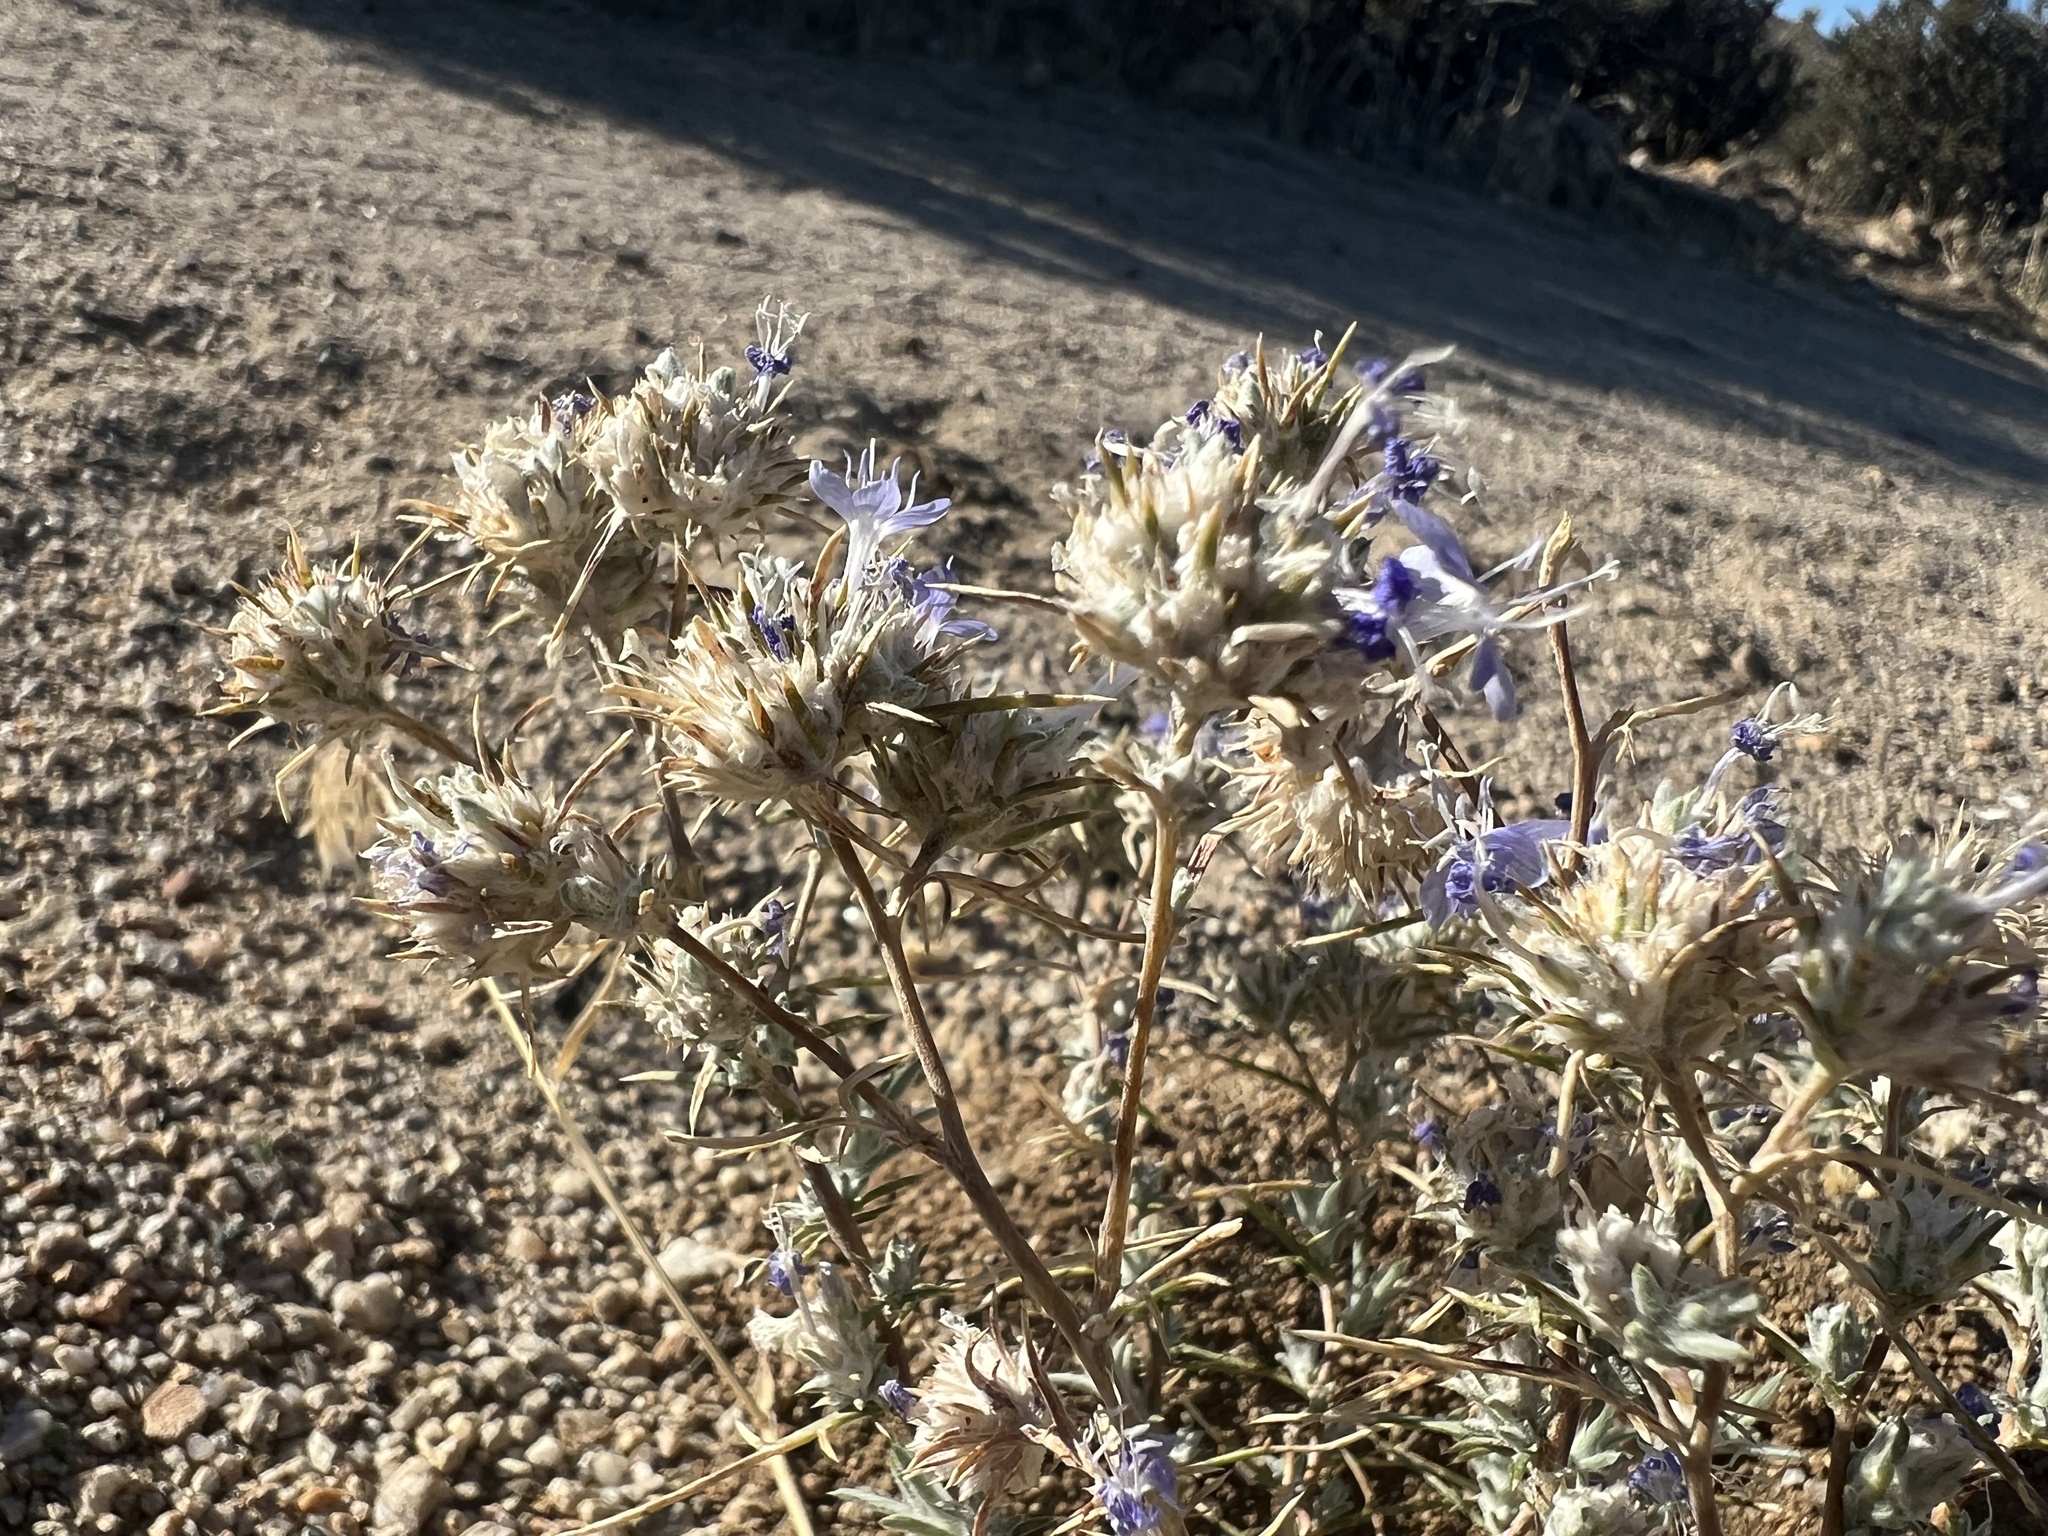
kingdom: Plantae
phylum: Tracheophyta
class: Magnoliopsida
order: Ericales
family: Polemoniaceae
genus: Eriastrum
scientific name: Eriastrum densifolium
